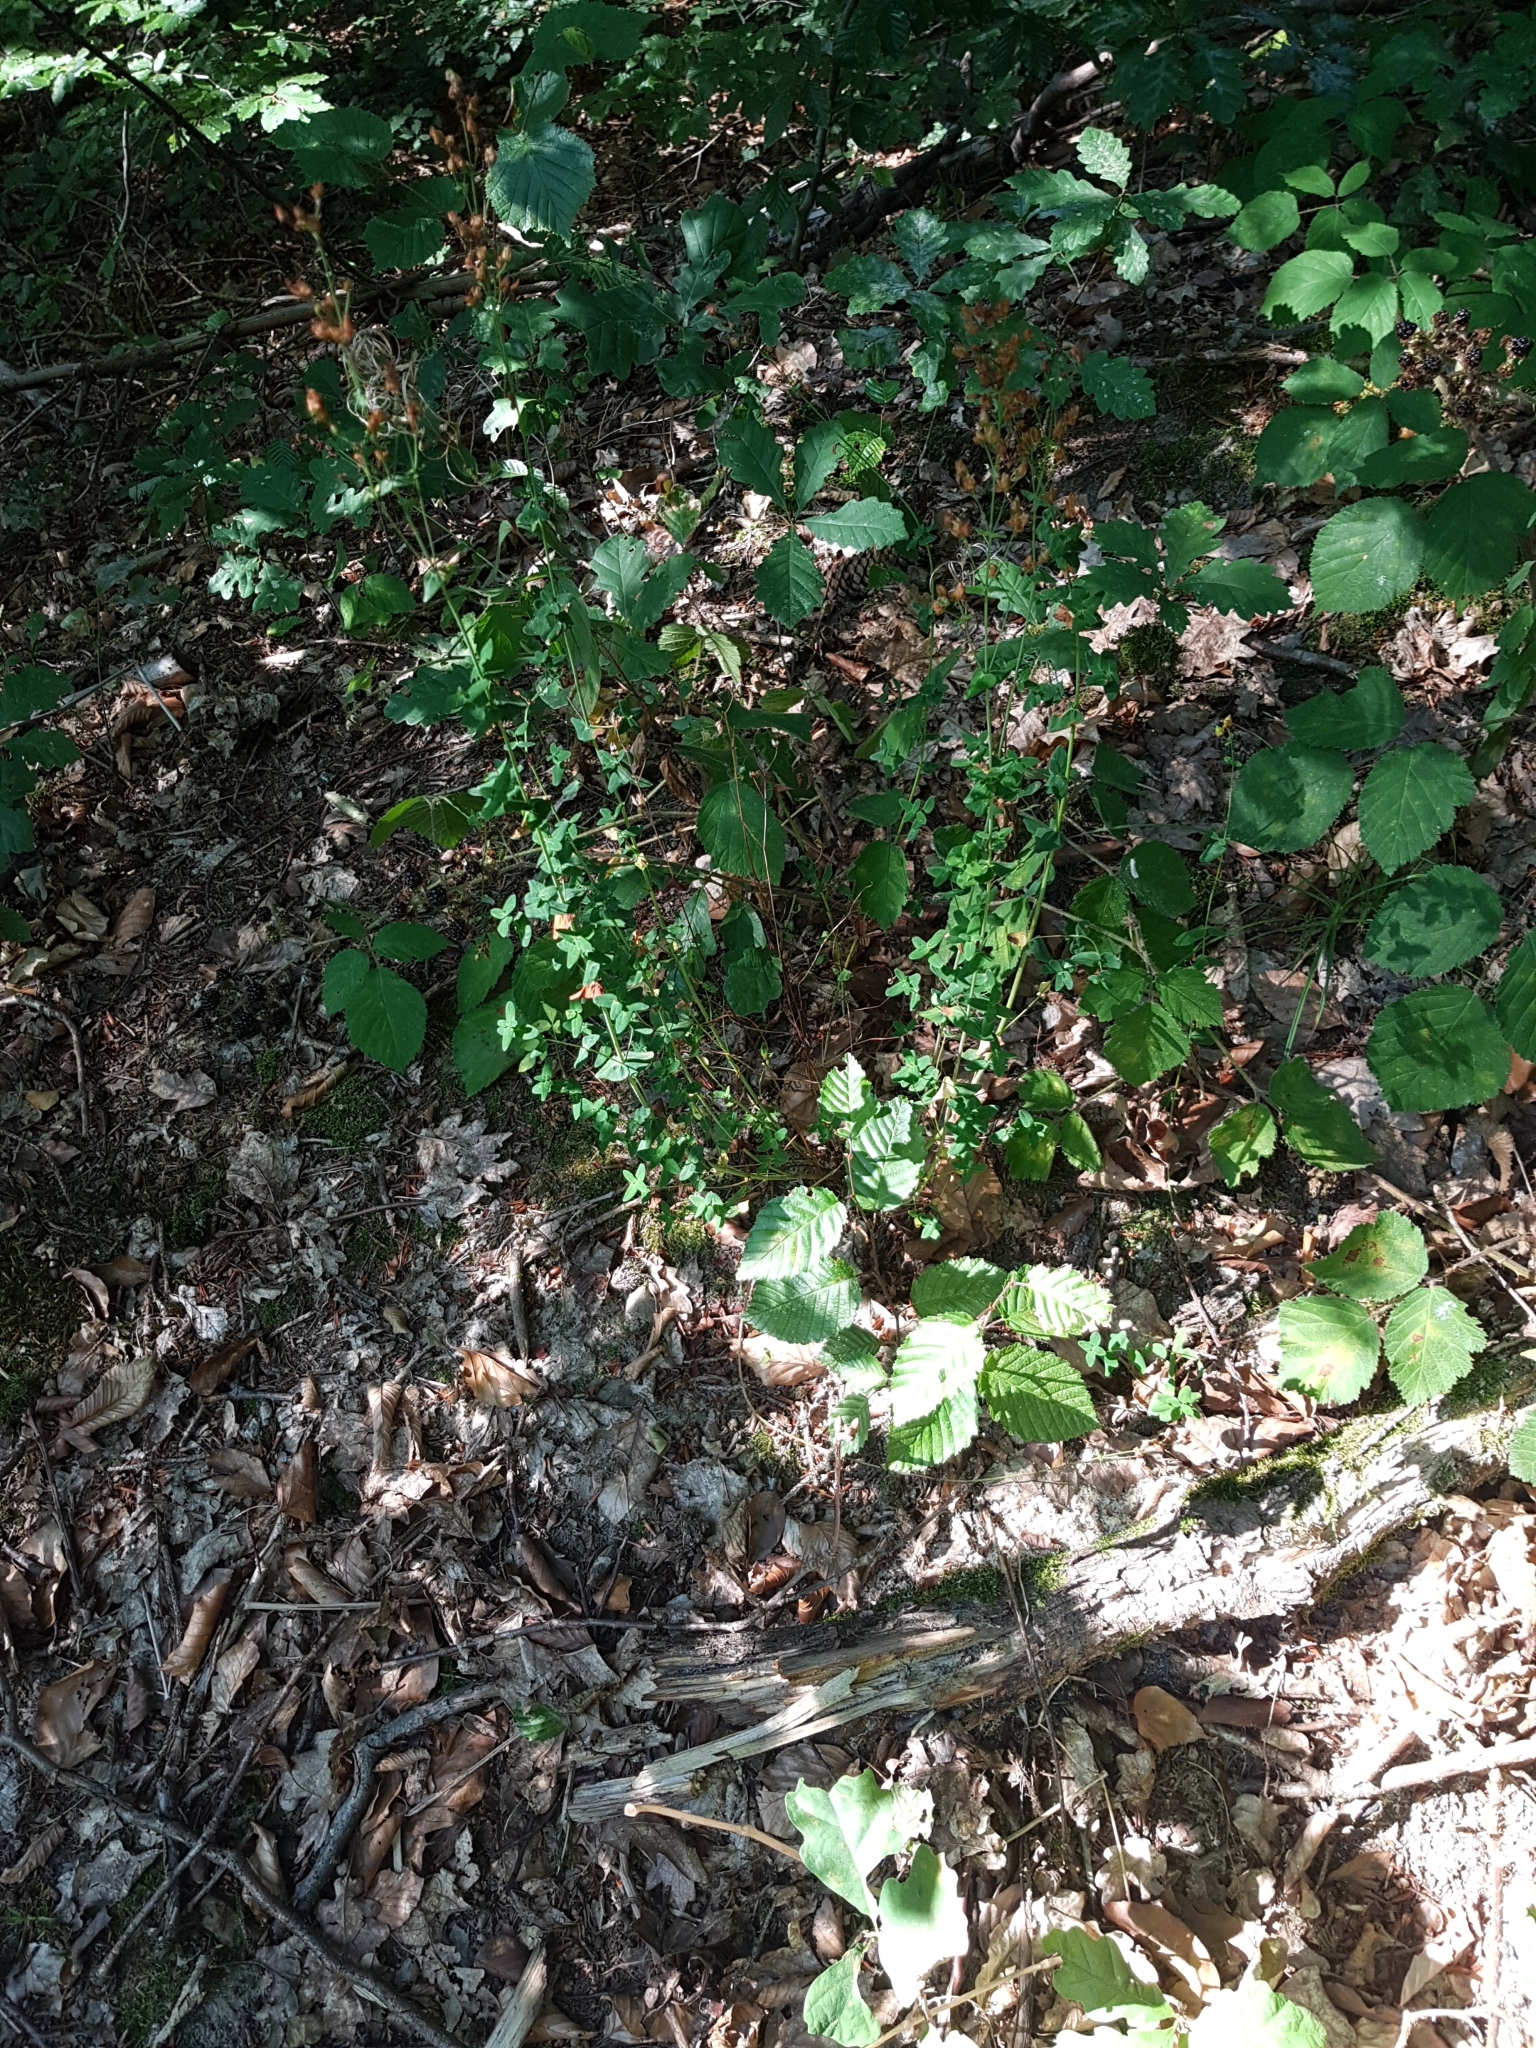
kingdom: Plantae
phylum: Tracheophyta
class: Magnoliopsida
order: Malpighiales
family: Hypericaceae
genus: Hypericum
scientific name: Hypericum pulchrum
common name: Slender st. john's-wort
